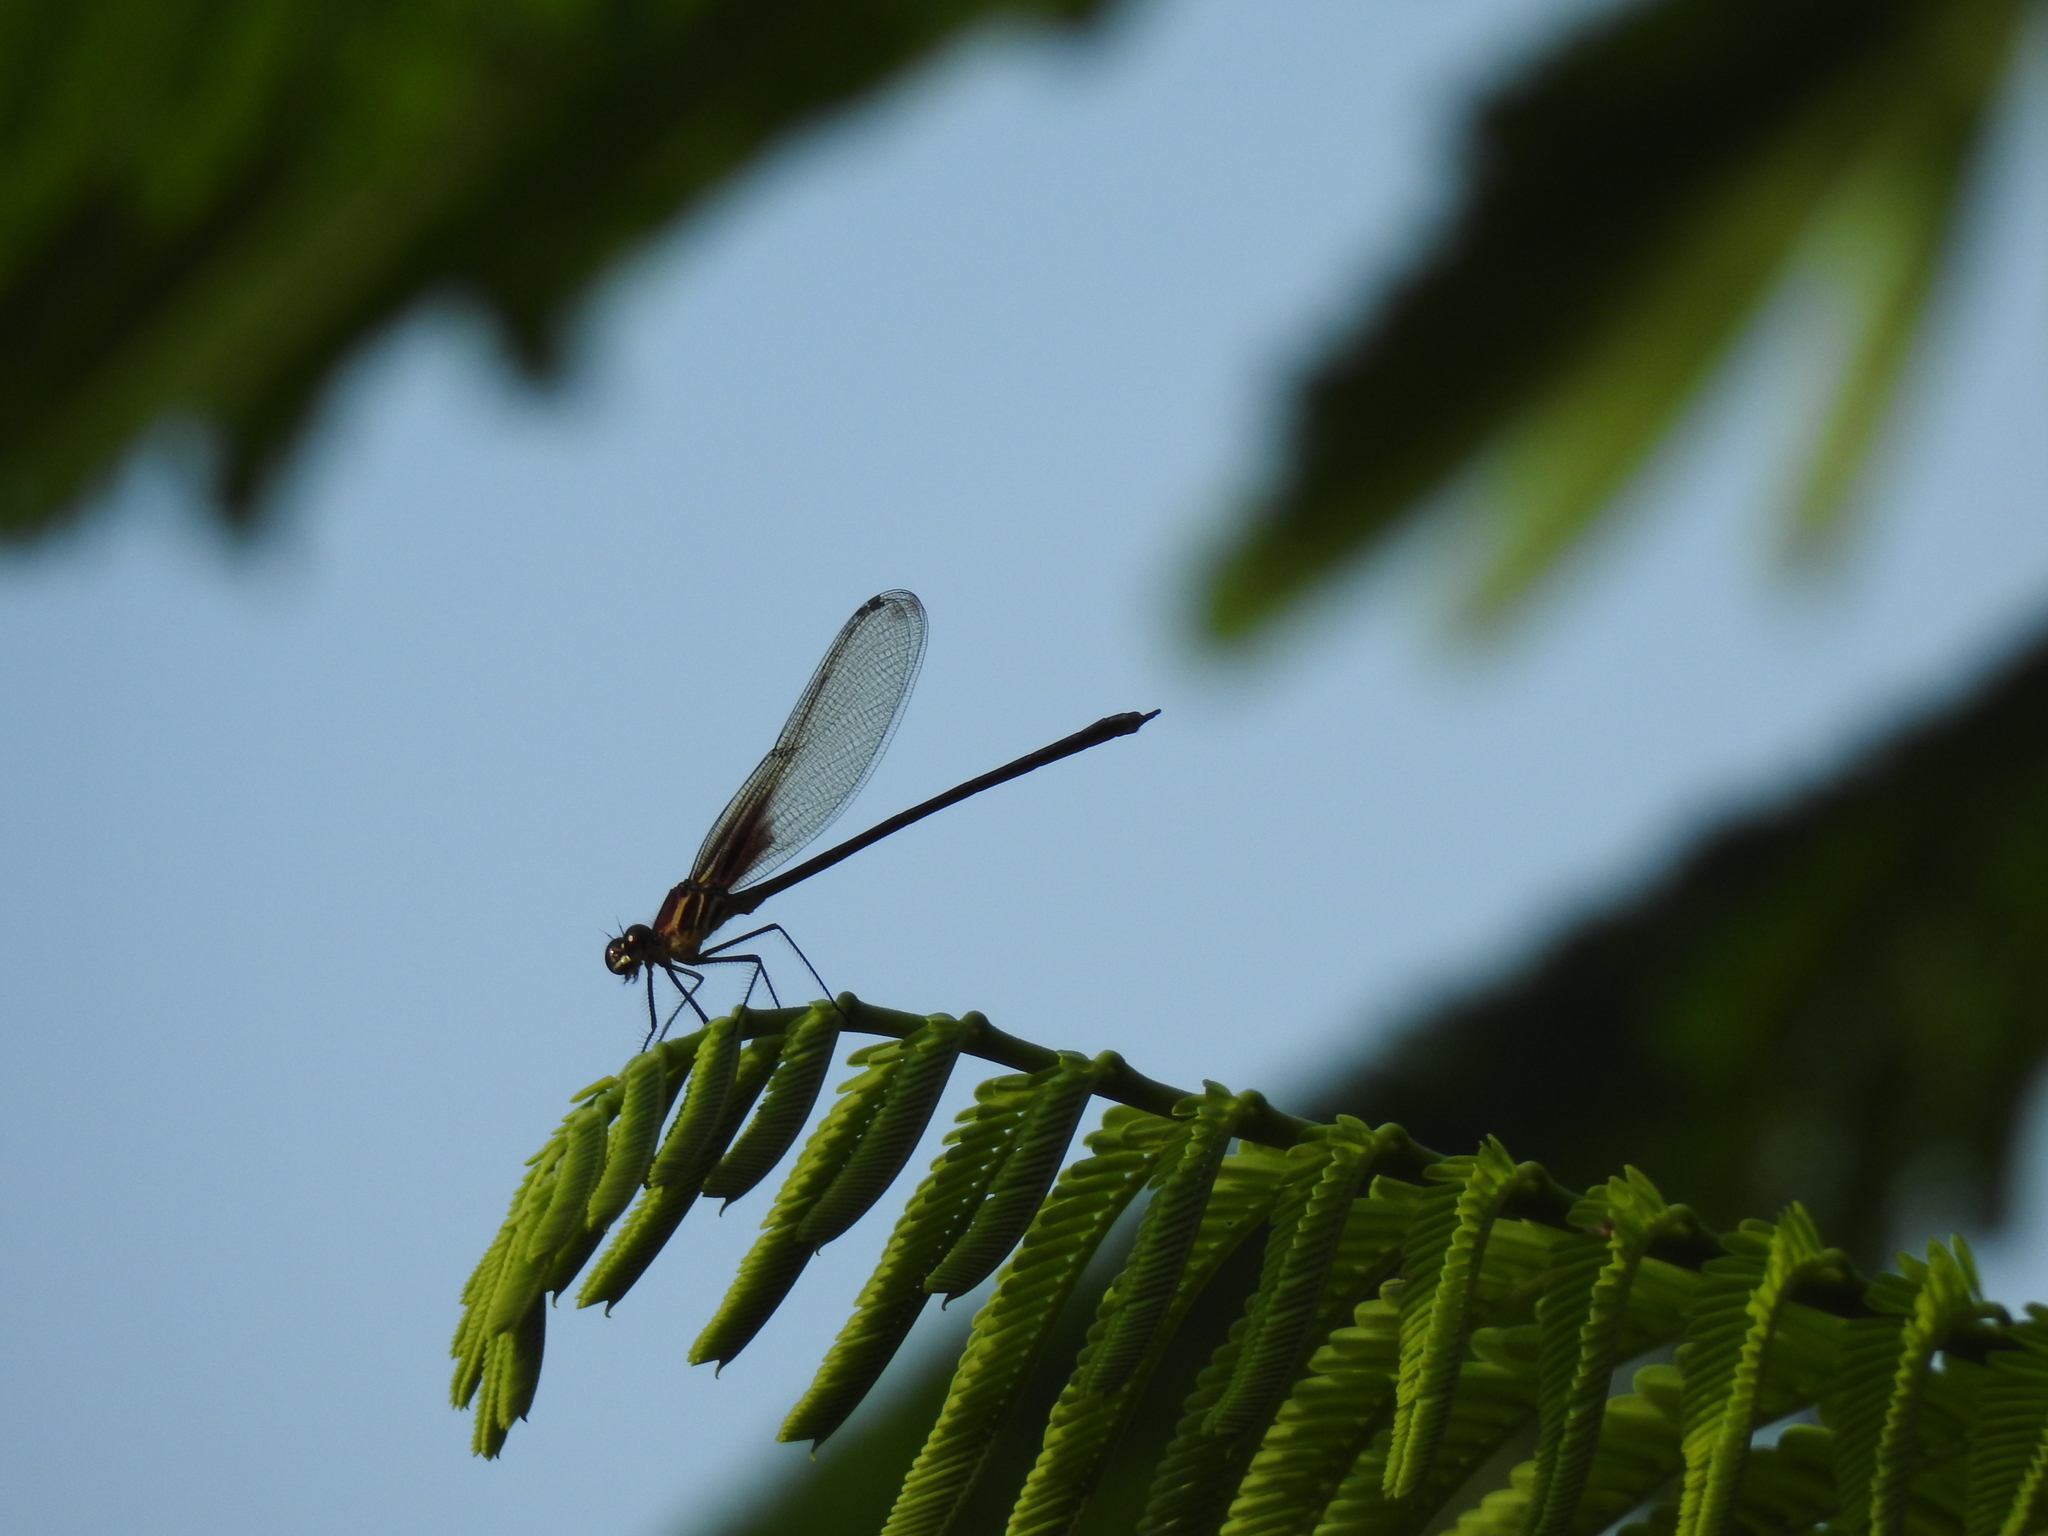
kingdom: Animalia
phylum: Arthropoda
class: Insecta
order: Odonata
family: Calopterygidae
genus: Hetaerina
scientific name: Hetaerina occisa
